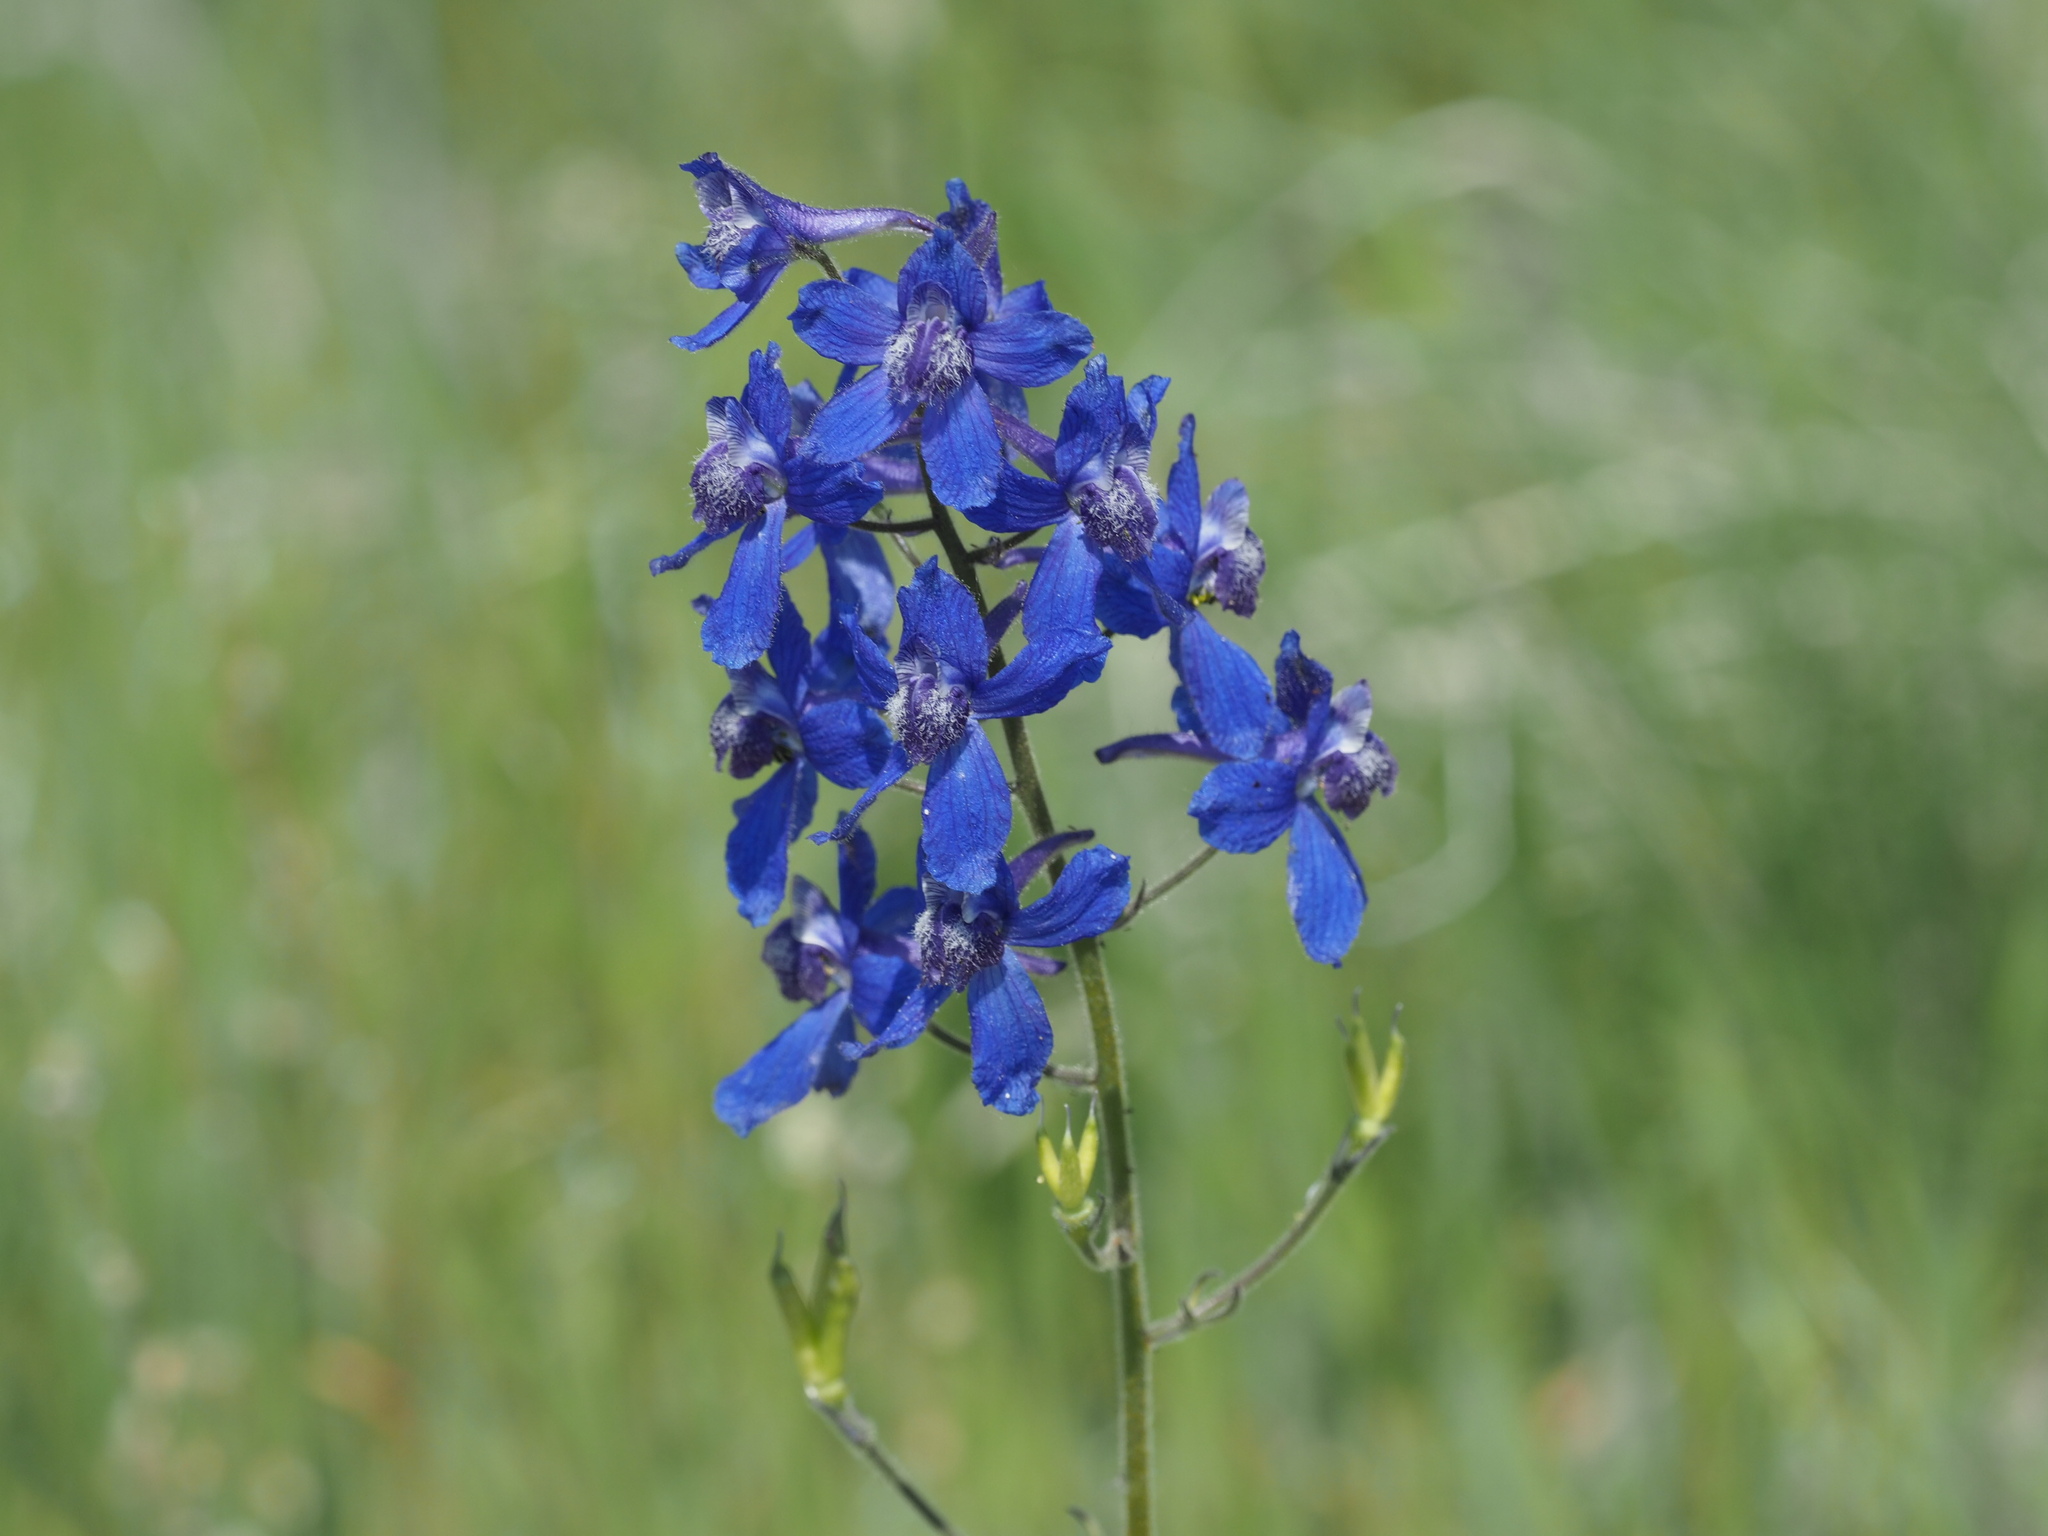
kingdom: Plantae
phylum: Tracheophyta
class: Magnoliopsida
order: Ranunculales
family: Ranunculaceae
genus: Delphinium
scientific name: Delphinium nuttallianum
